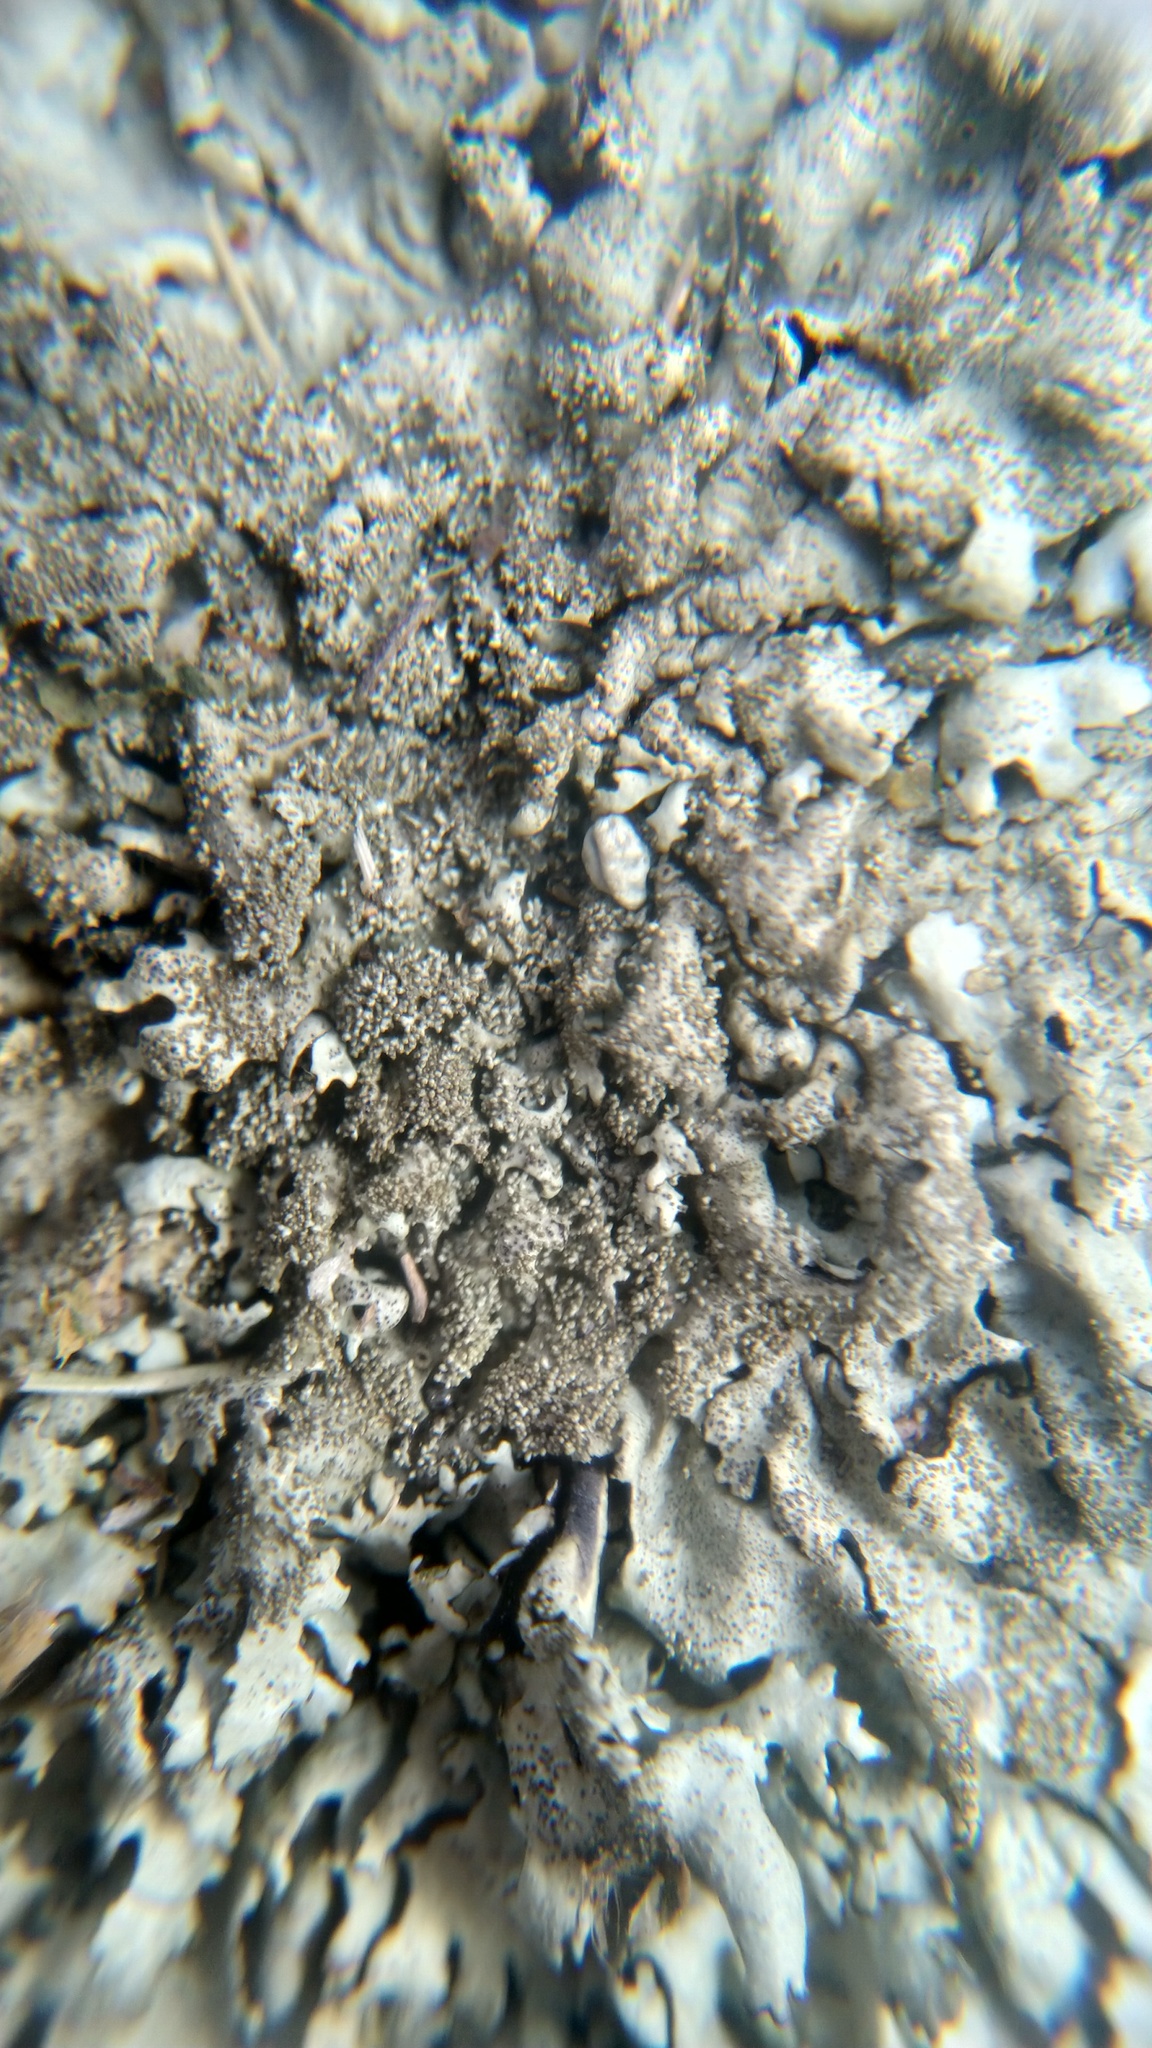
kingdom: Fungi
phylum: Ascomycota
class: Lecanoromycetes
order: Lecanorales
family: Parmeliaceae
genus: Xanthoparmelia
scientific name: Xanthoparmelia conspersa
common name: Peppered rock shield
